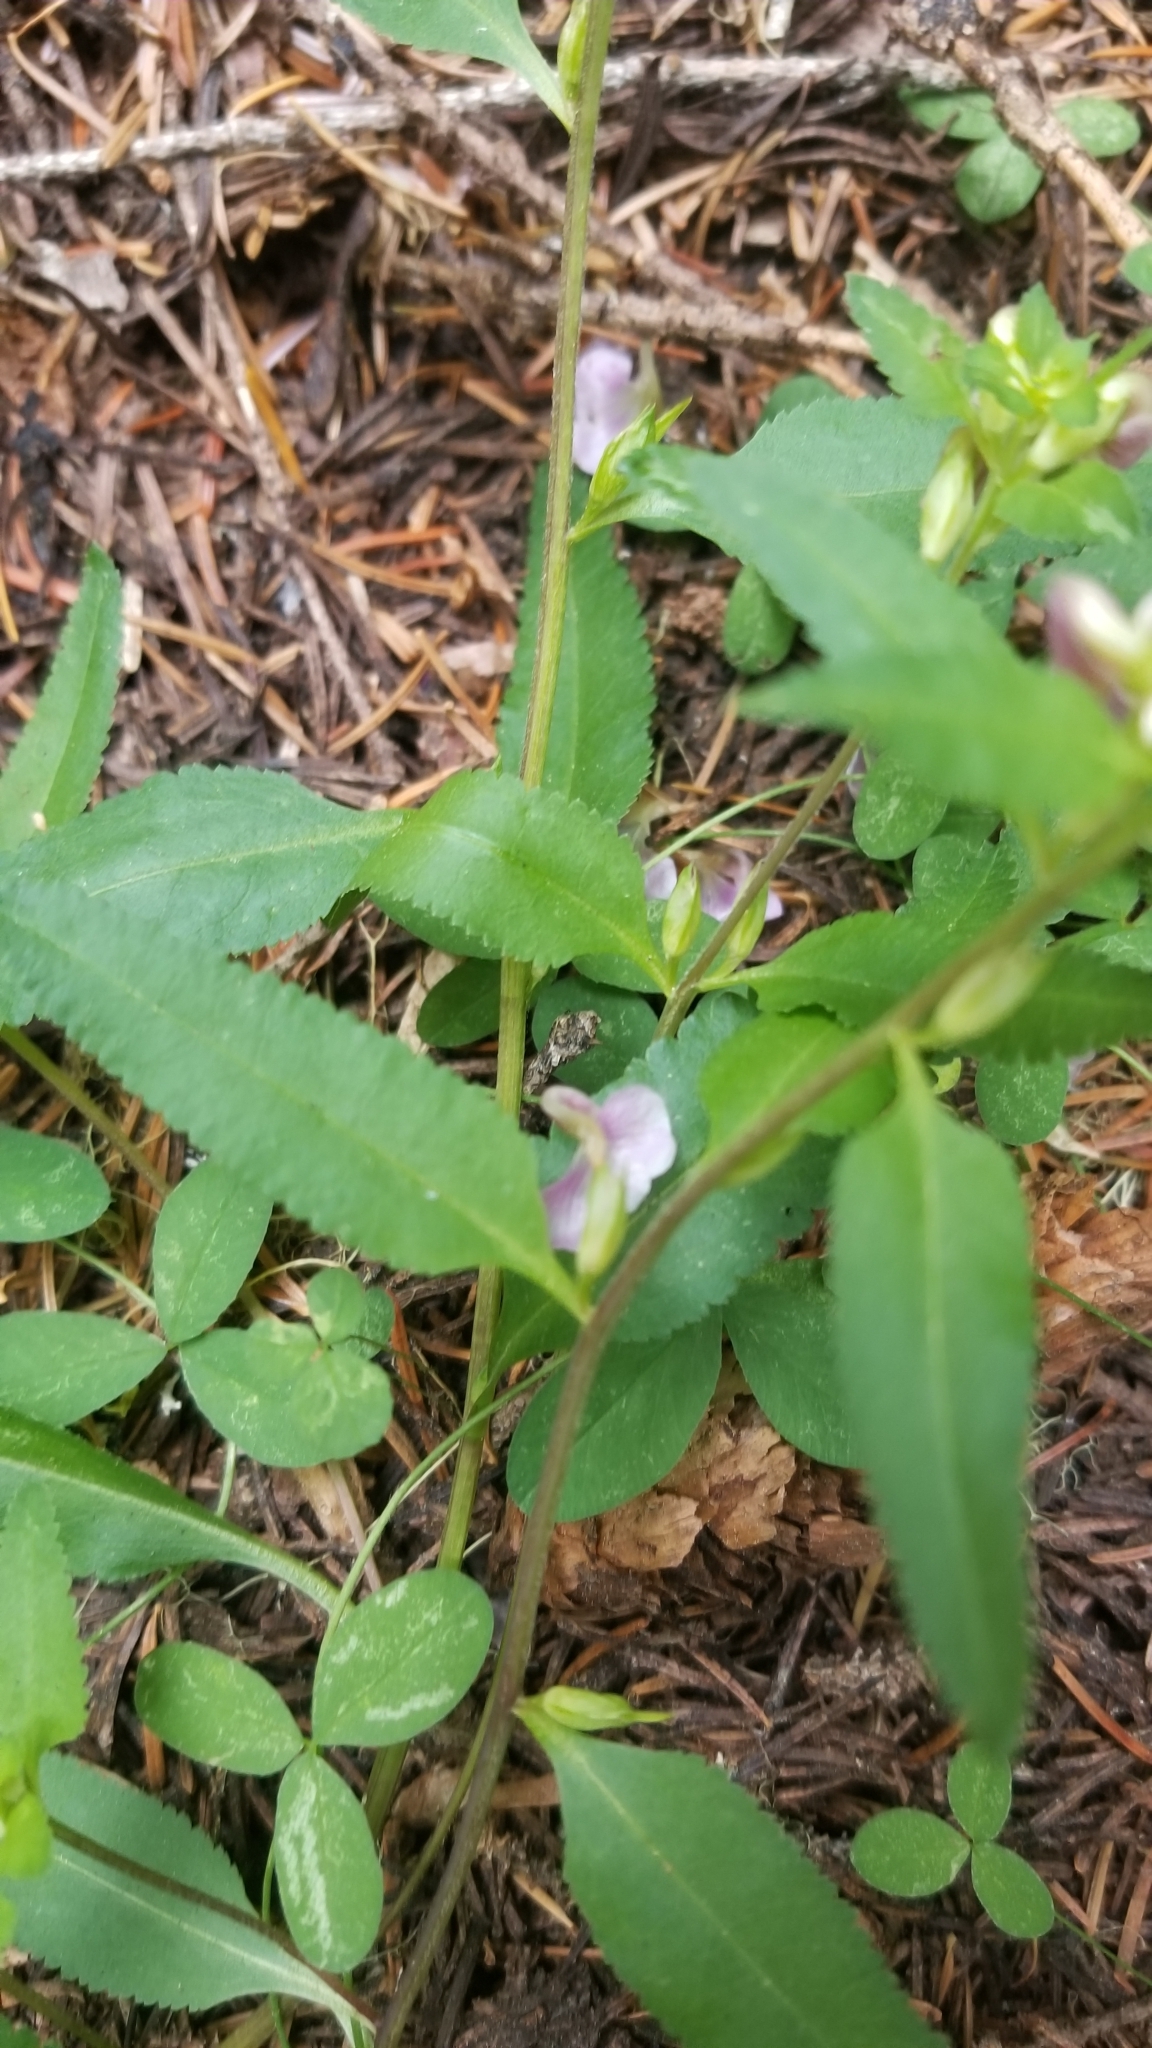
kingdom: Plantae
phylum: Tracheophyta
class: Magnoliopsida
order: Lamiales
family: Orobanchaceae
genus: Pedicularis
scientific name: Pedicularis racemosa
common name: Leafy lousewort
